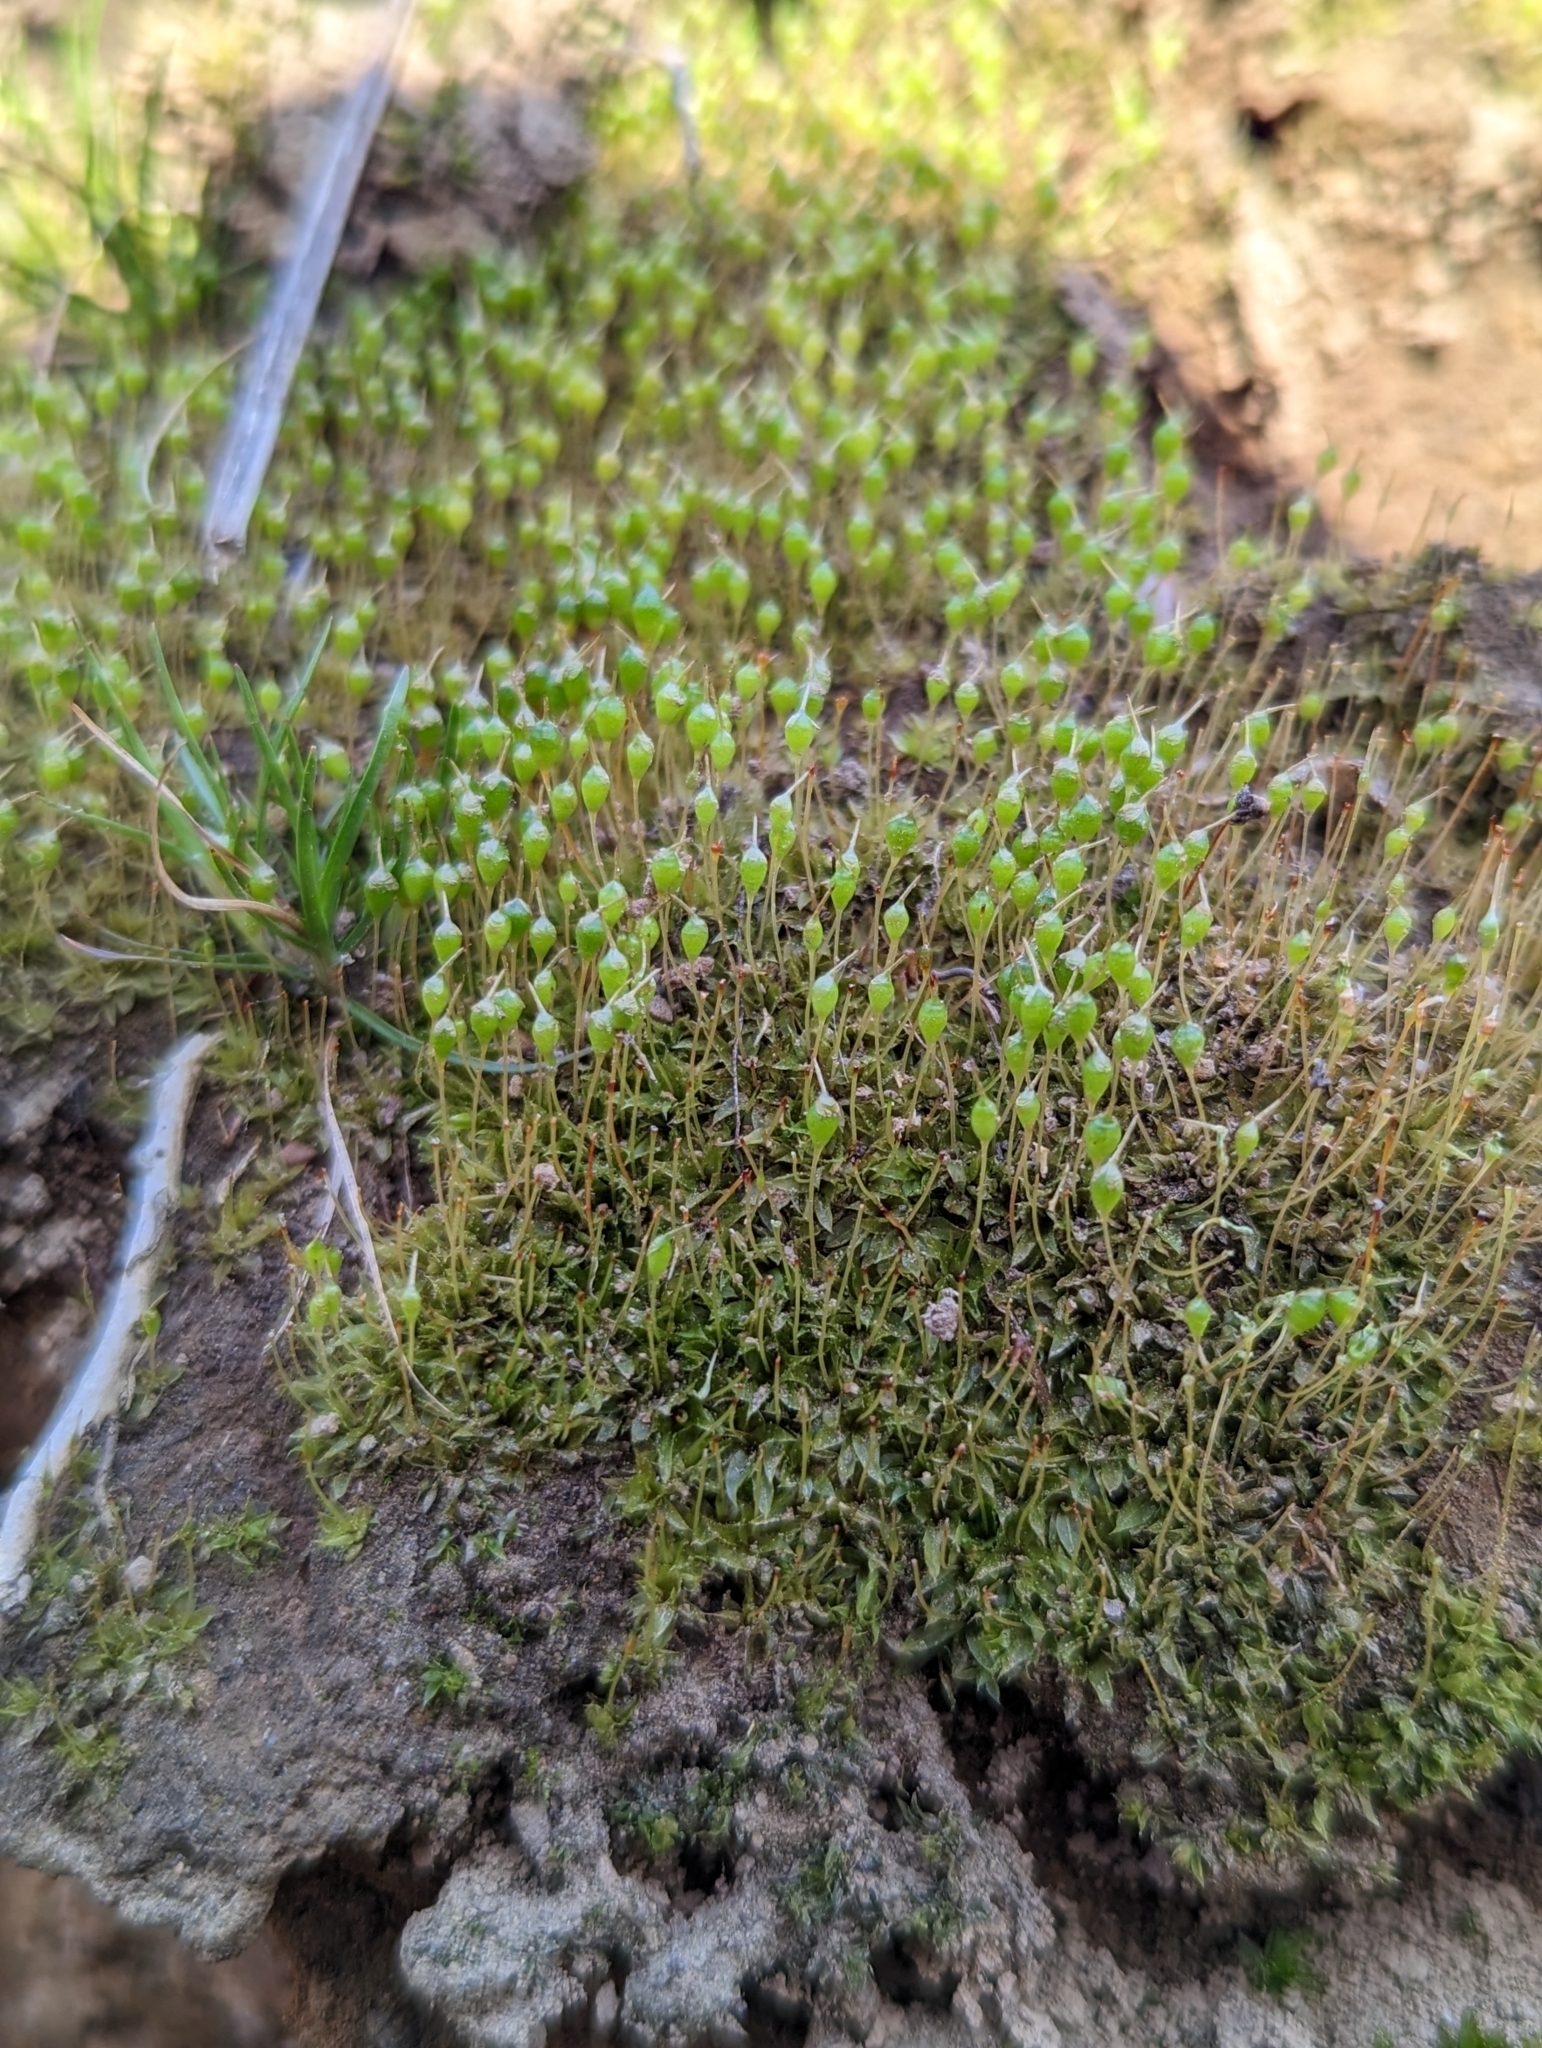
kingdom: Plantae
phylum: Bryophyta
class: Bryopsida
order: Funariales
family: Funariaceae
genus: Physcomitrium
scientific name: Physcomitrium pyriforme
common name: Common bladder-moss
